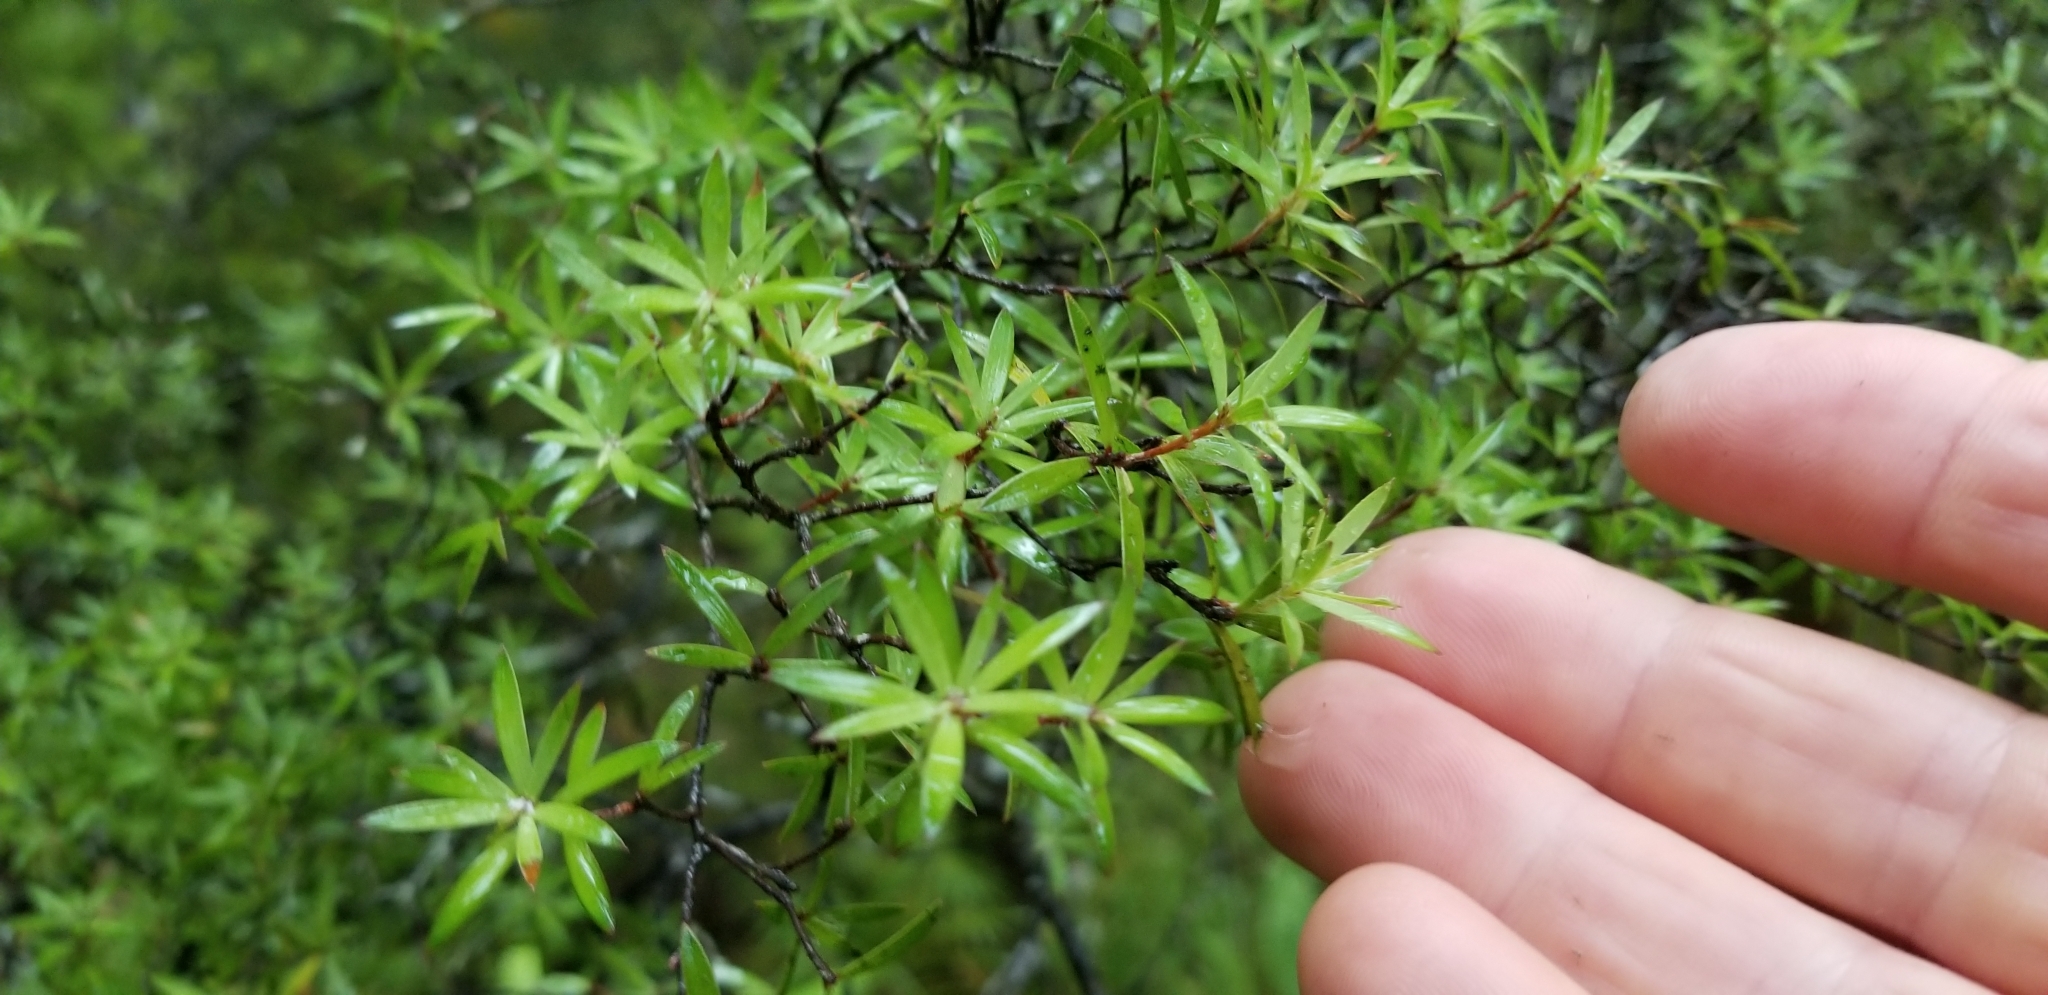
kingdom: Plantae
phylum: Tracheophyta
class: Magnoliopsida
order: Ericales
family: Ericaceae
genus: Leucopogon
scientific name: Leucopogon fasciculatus
